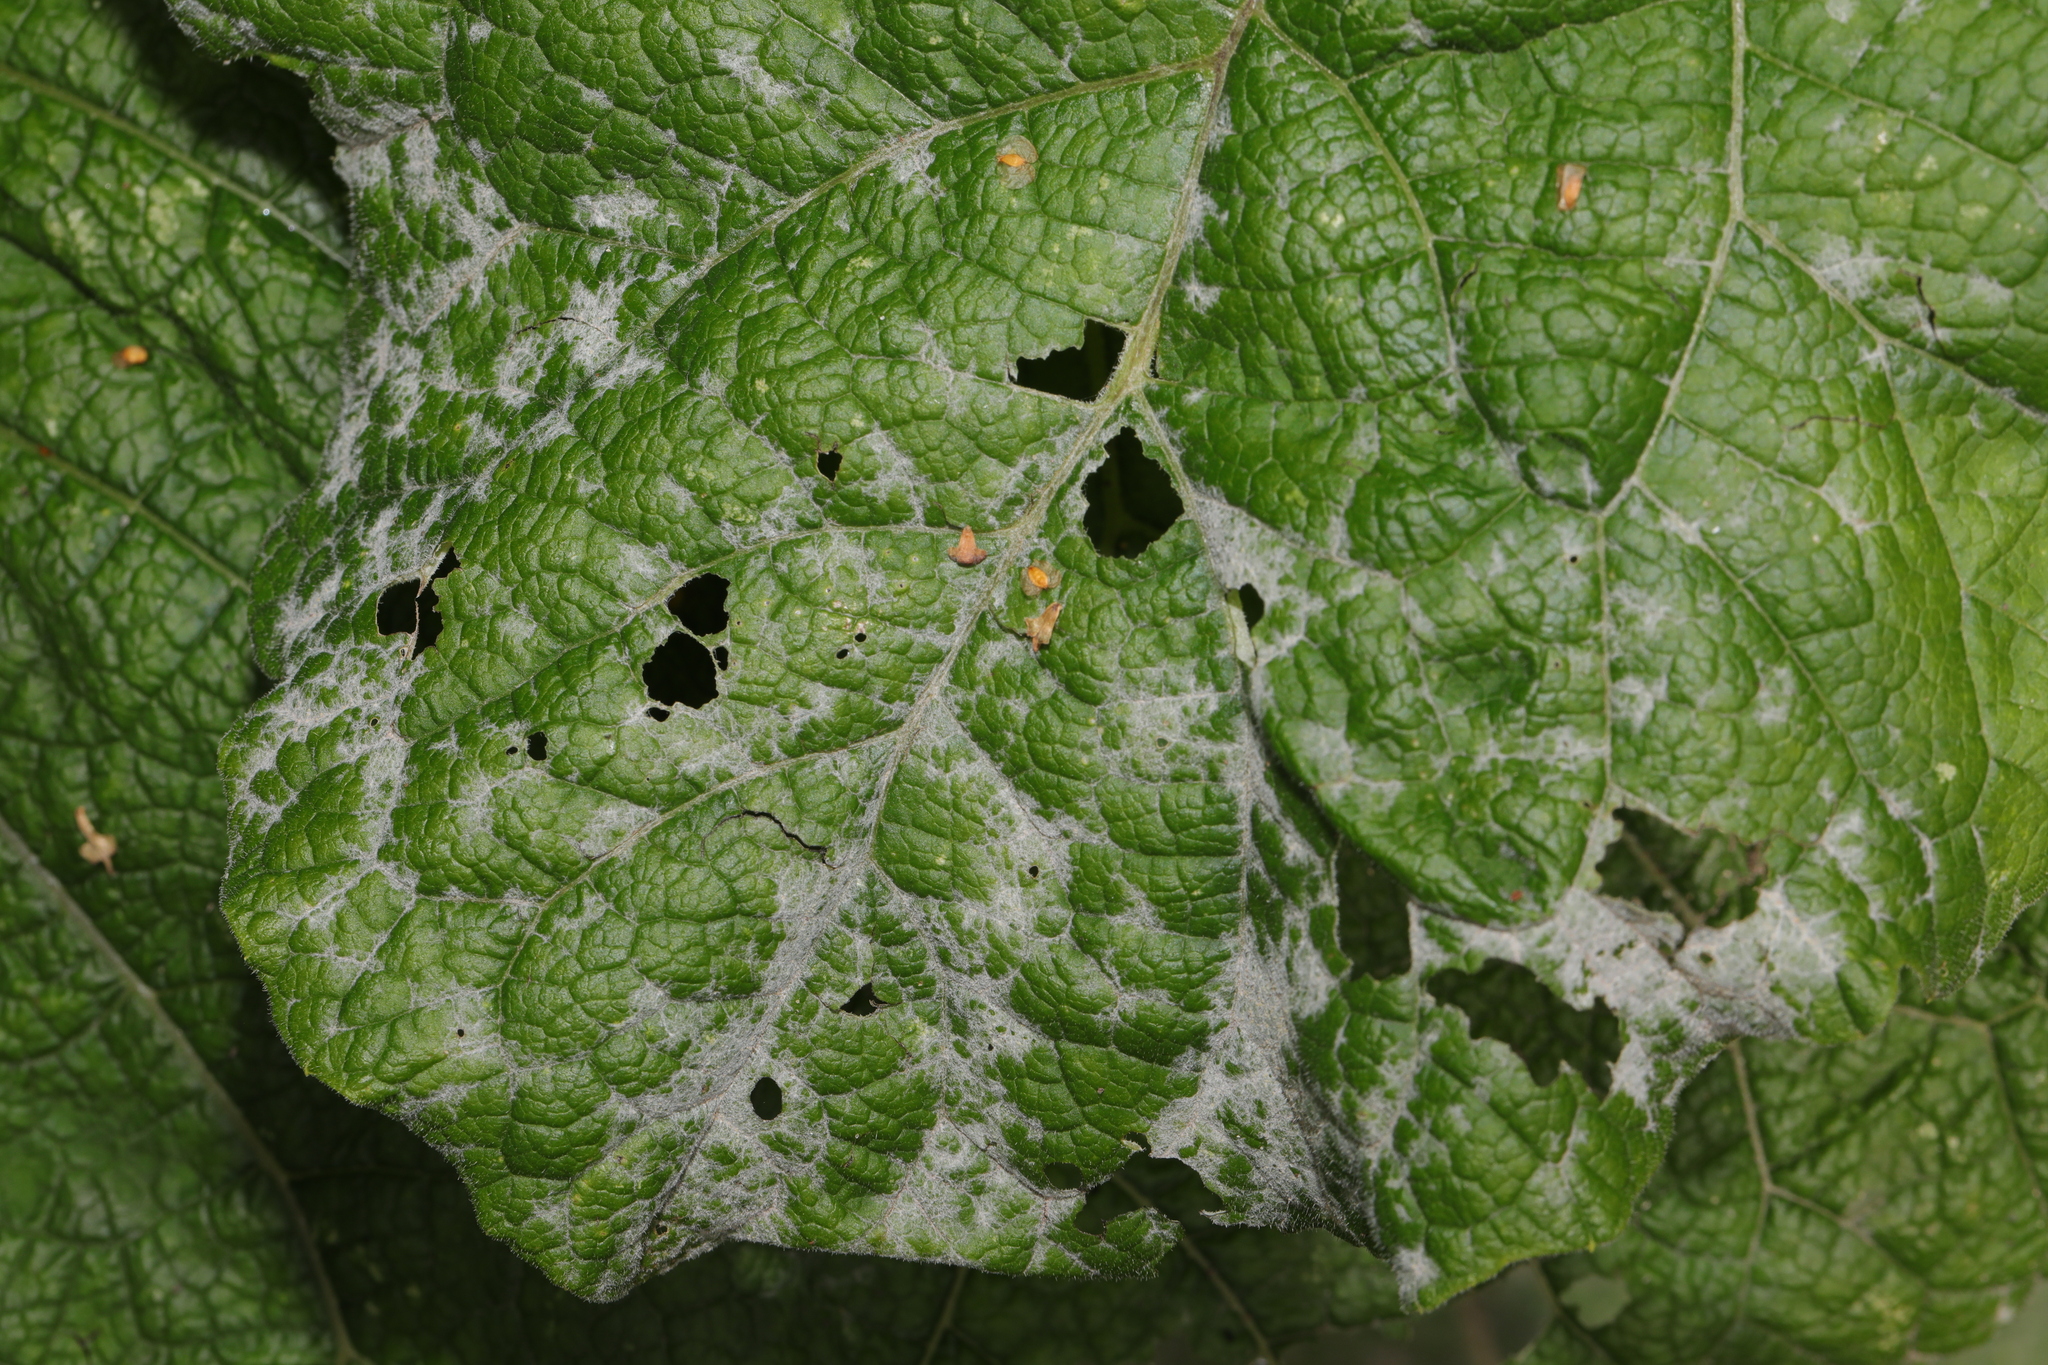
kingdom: Fungi
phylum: Ascomycota
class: Leotiomycetes
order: Helotiales
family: Erysiphaceae
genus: Golovinomyces
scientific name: Golovinomyces depressus
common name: Burdock mildew
